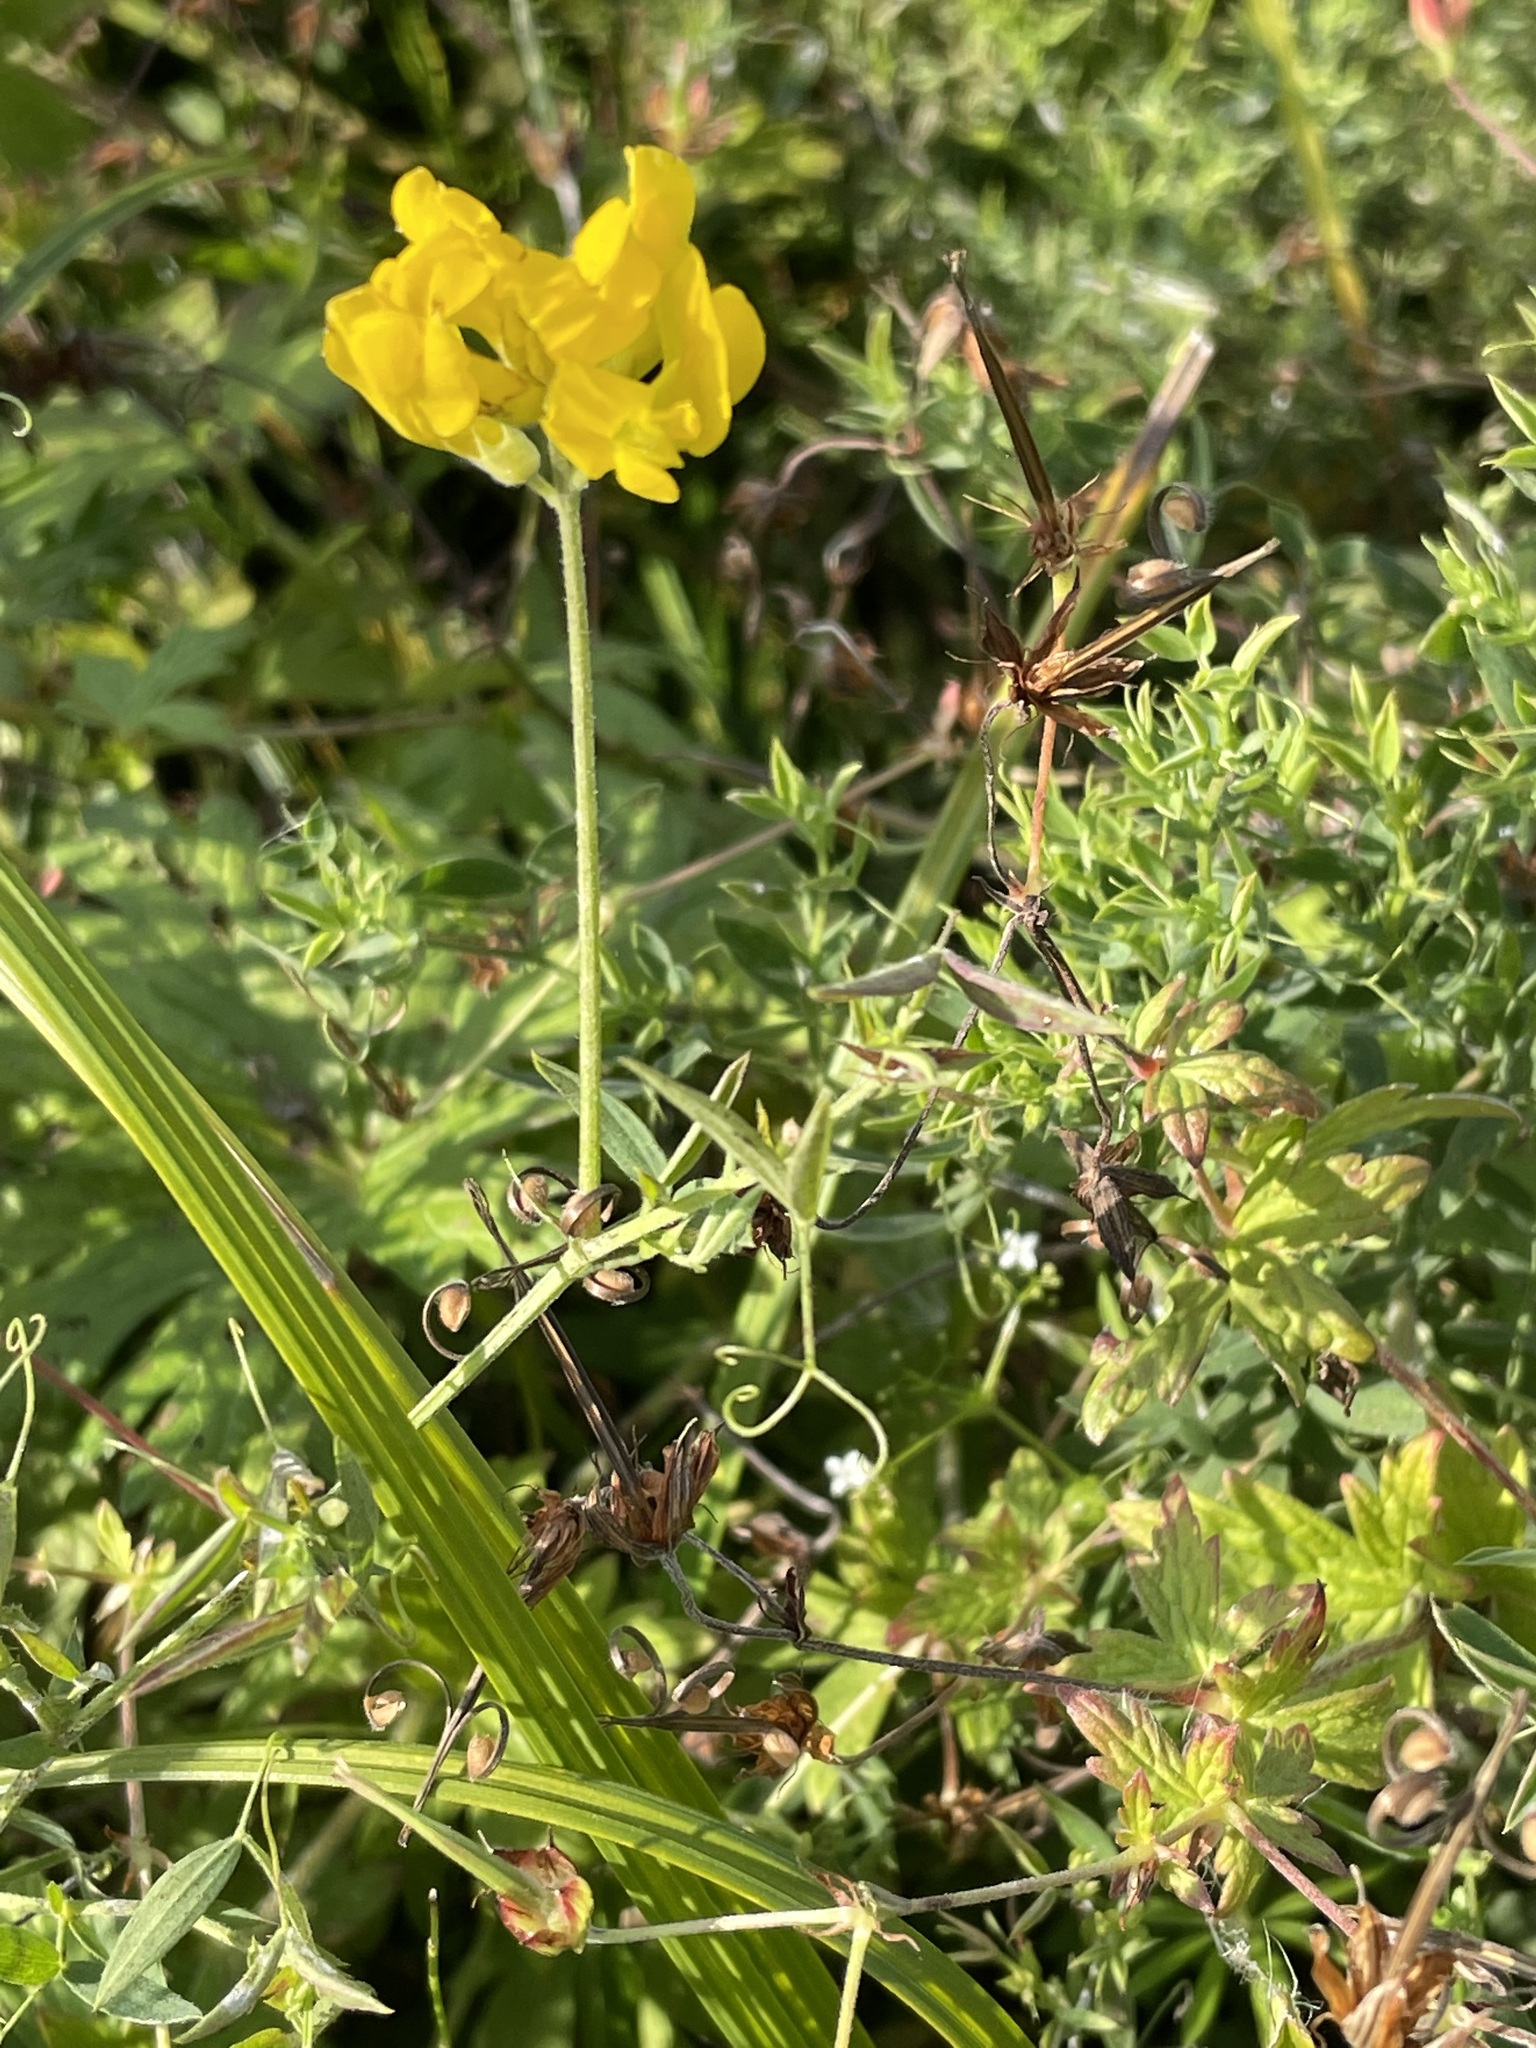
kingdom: Plantae
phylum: Tracheophyta
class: Magnoliopsida
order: Fabales
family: Fabaceae
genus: Lathyrus
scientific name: Lathyrus pratensis
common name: Meadow vetchling
